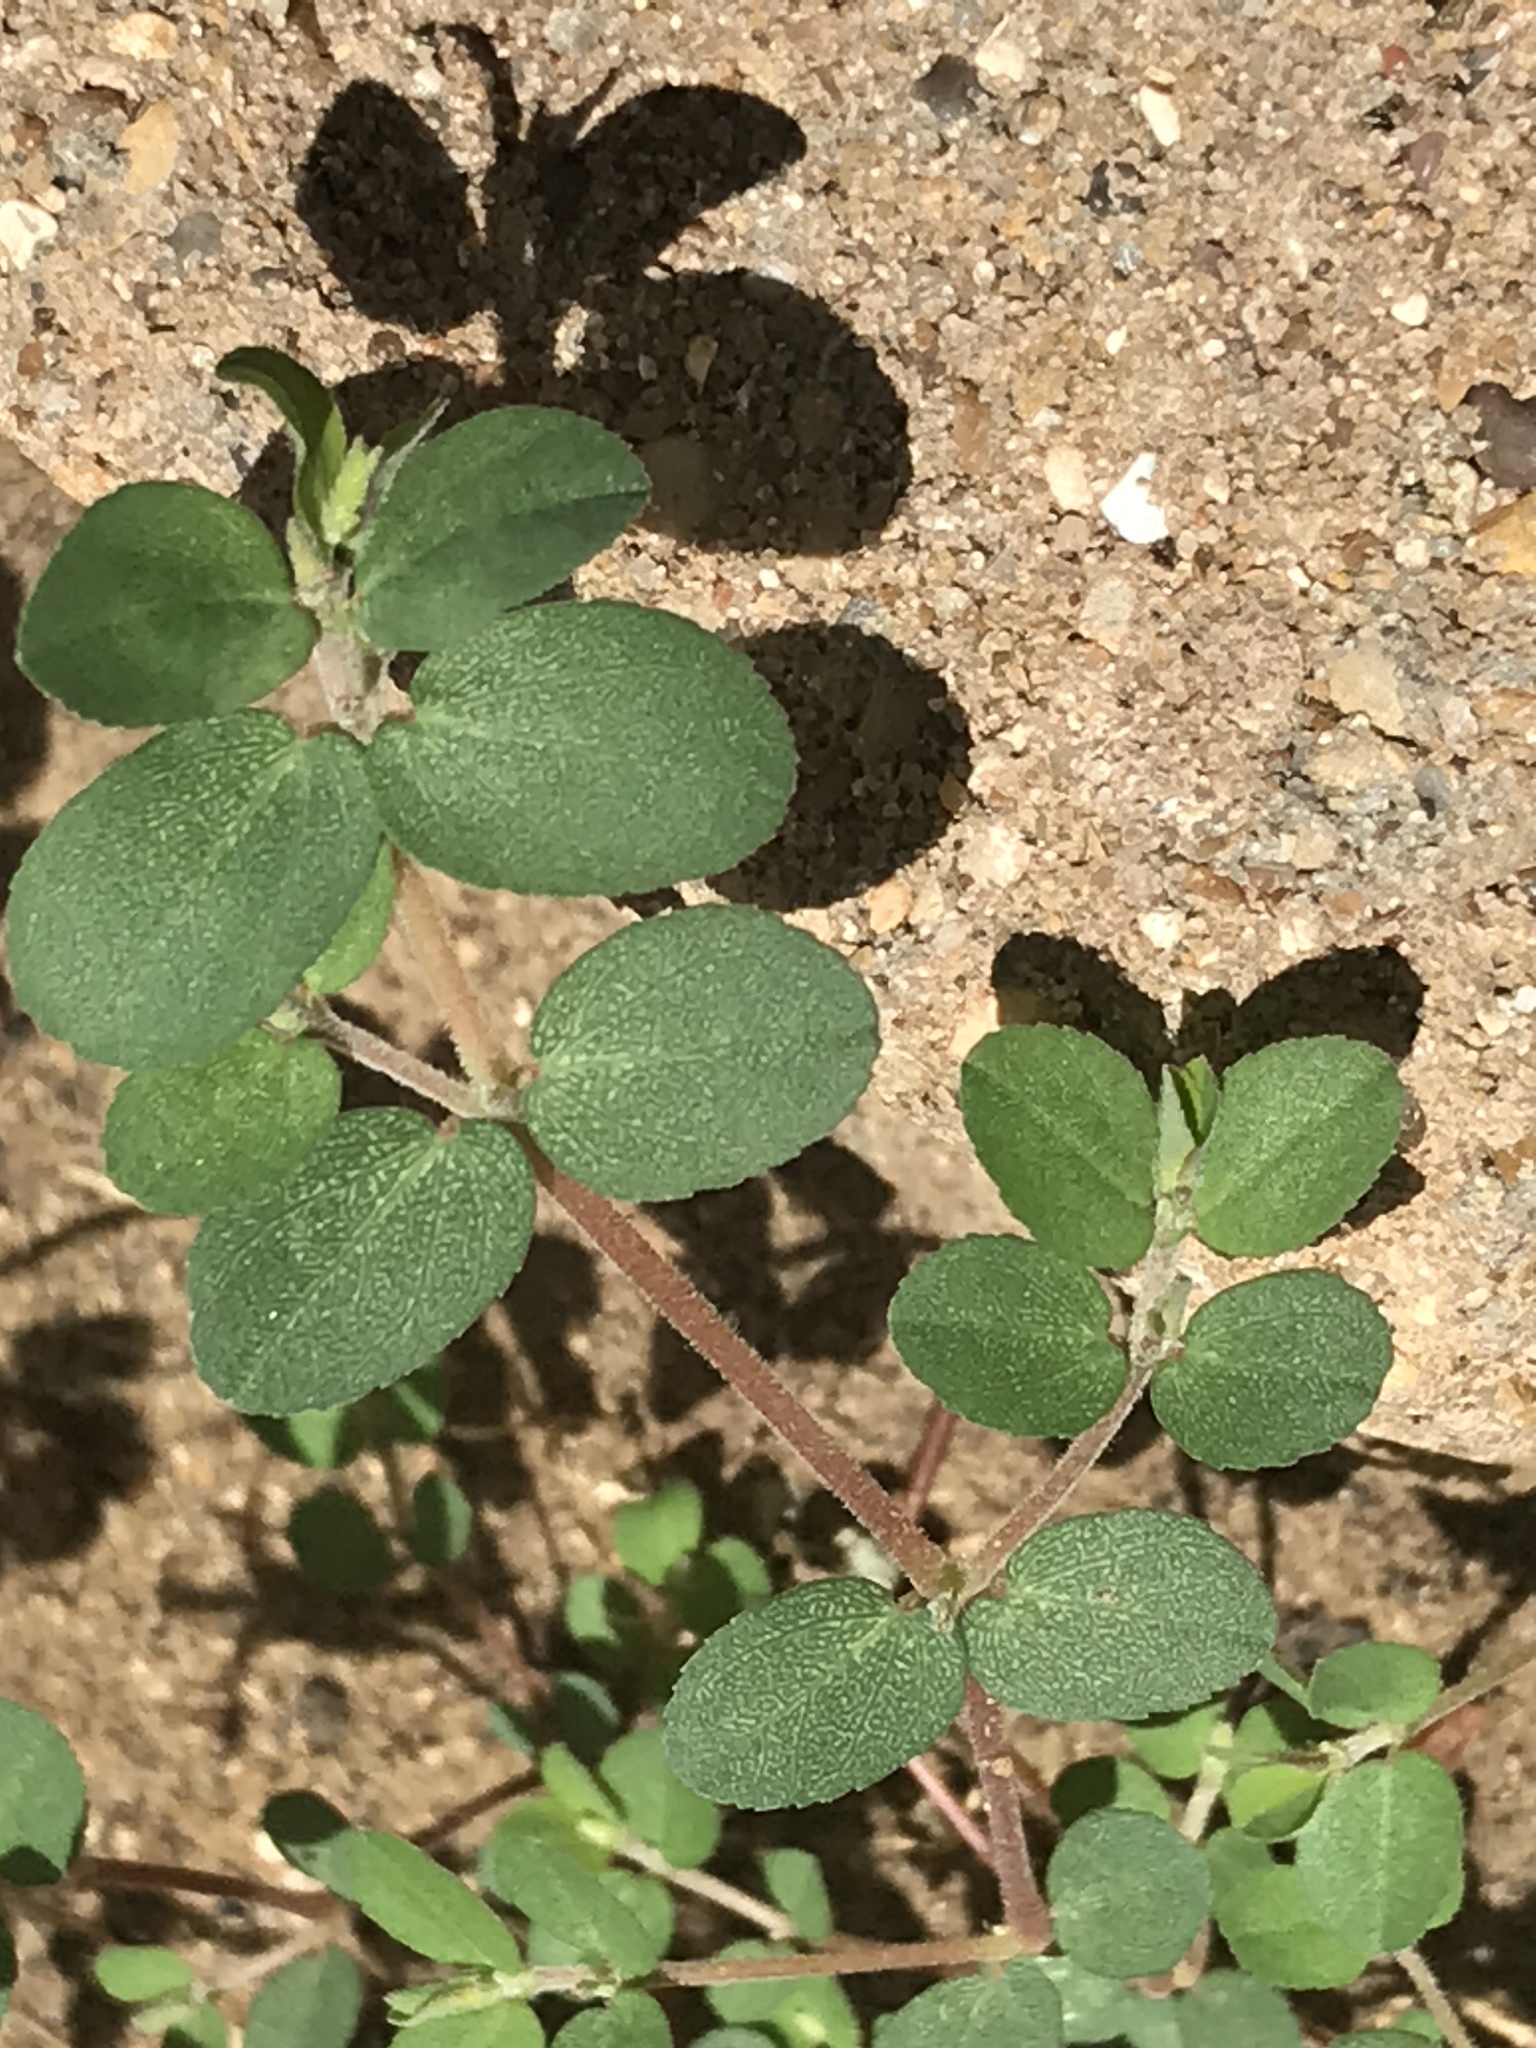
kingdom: Plantae
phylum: Tracheophyta
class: Magnoliopsida
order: Malpighiales
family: Euphorbiaceae
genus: Euphorbia
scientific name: Euphorbia prostrata
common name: Prostrate sandmat
